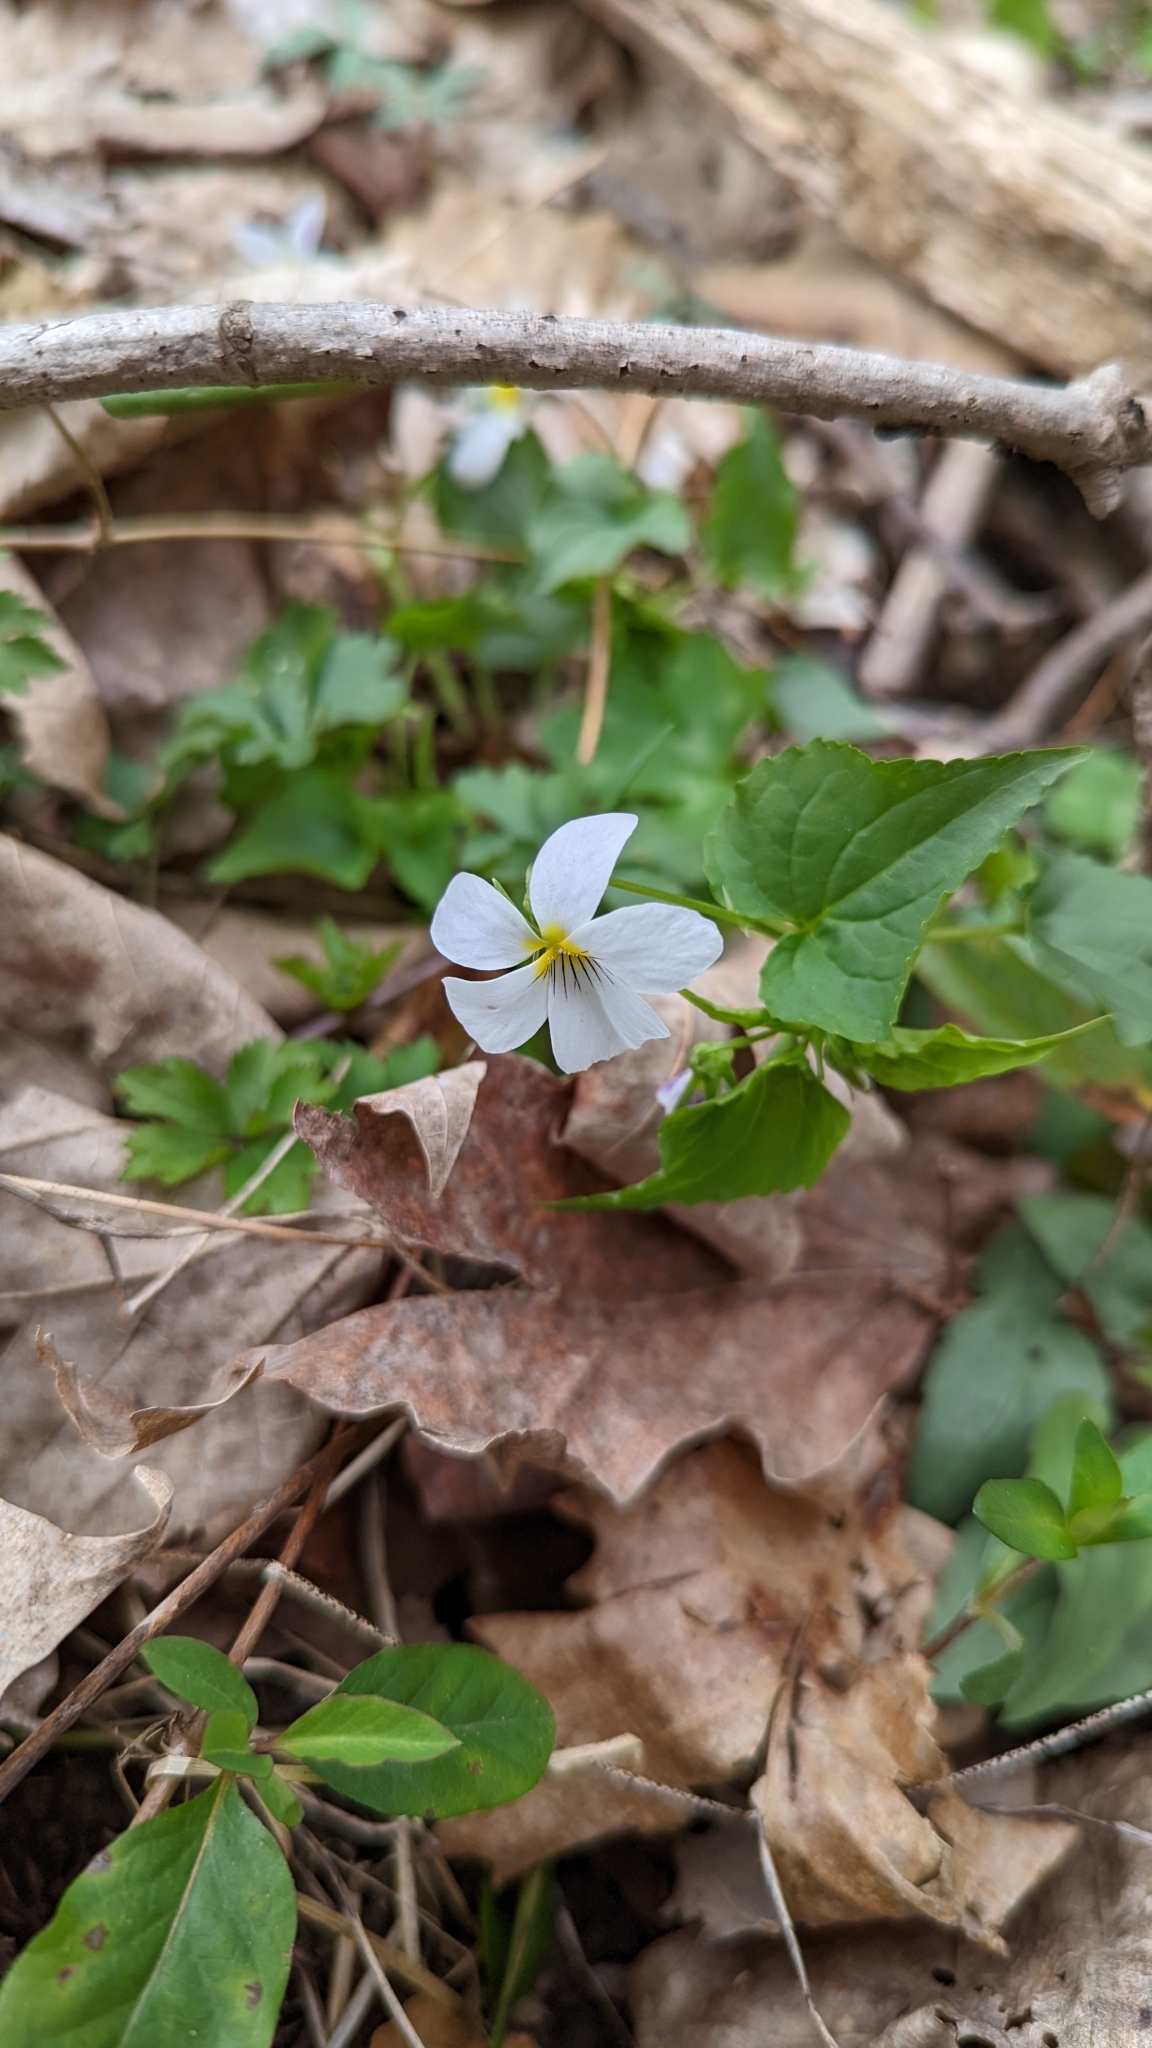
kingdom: Plantae
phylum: Tracheophyta
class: Magnoliopsida
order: Malpighiales
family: Violaceae
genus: Viola
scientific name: Viola canadensis
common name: Canada violet
